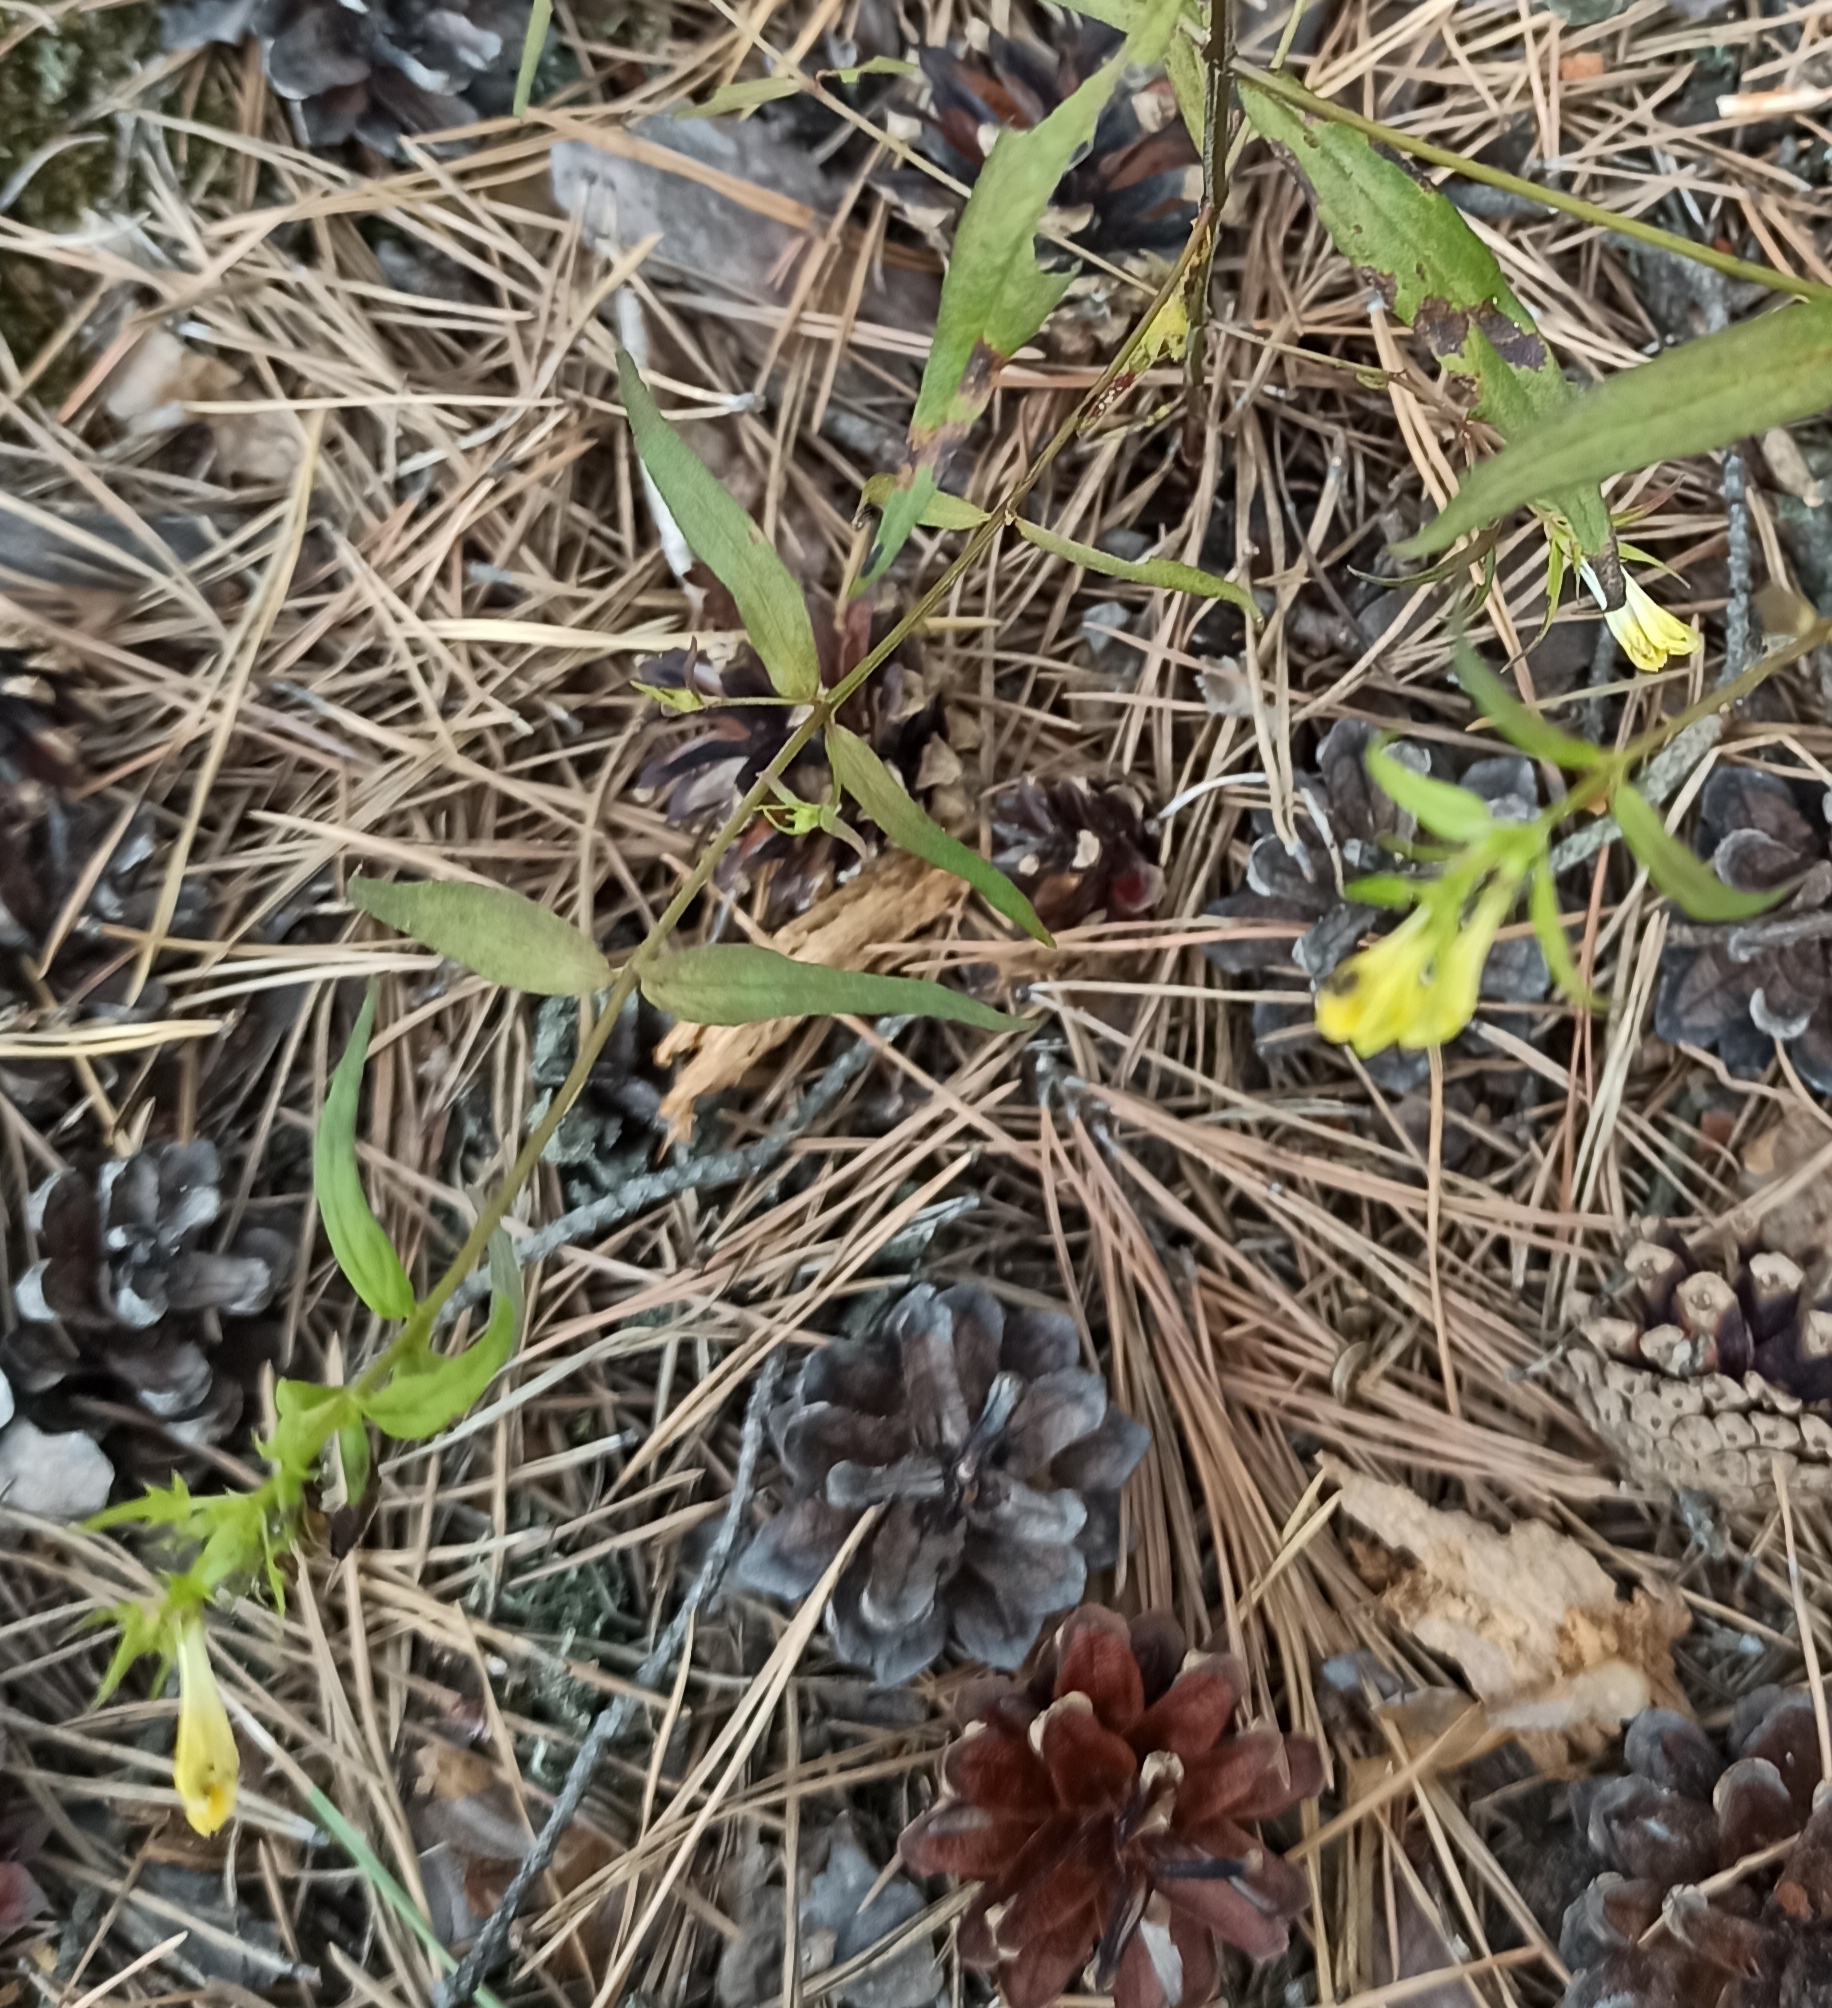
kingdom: Plantae
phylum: Tracheophyta
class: Magnoliopsida
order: Lamiales
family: Orobanchaceae
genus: Melampyrum
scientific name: Melampyrum pratense
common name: Common cow-wheat
